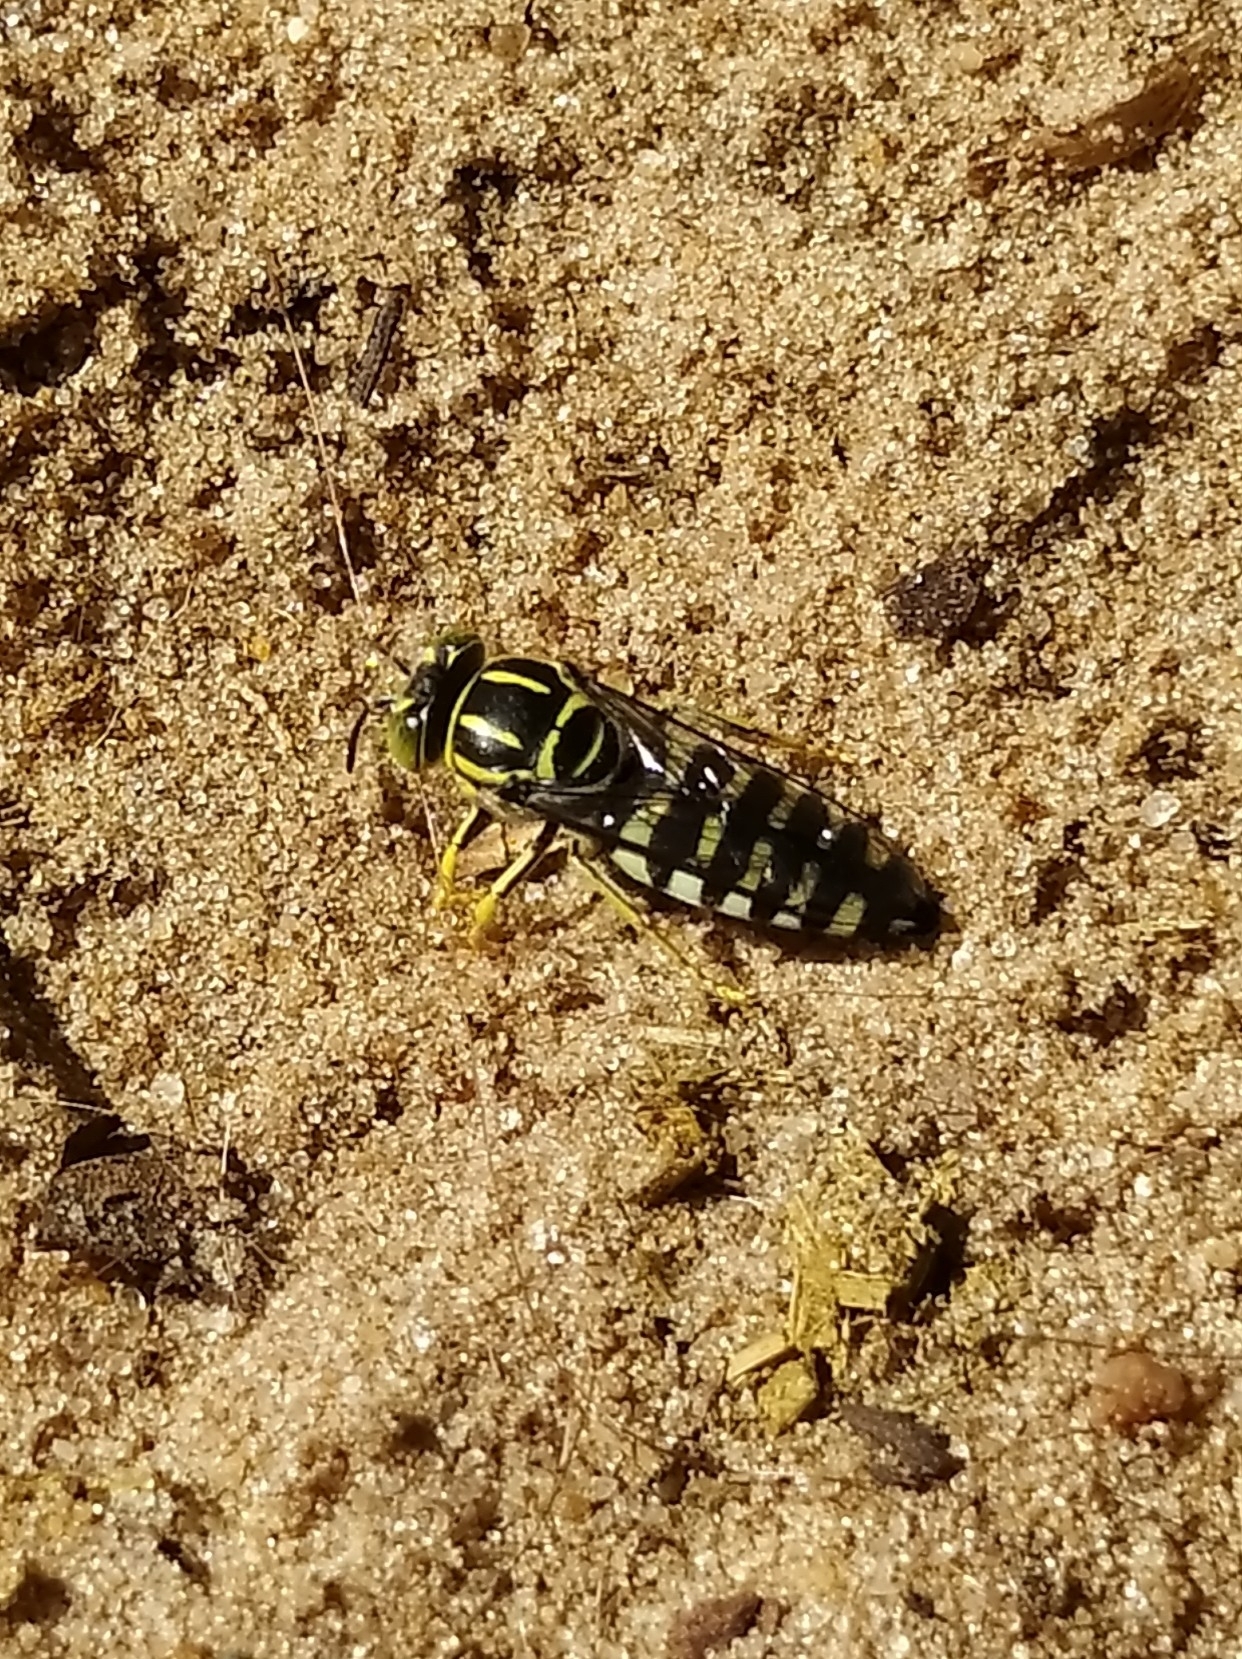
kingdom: Animalia
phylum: Arthropoda
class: Insecta
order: Hymenoptera
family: Crabronidae
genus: Bicyrtes
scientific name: Bicyrtes variegatus
